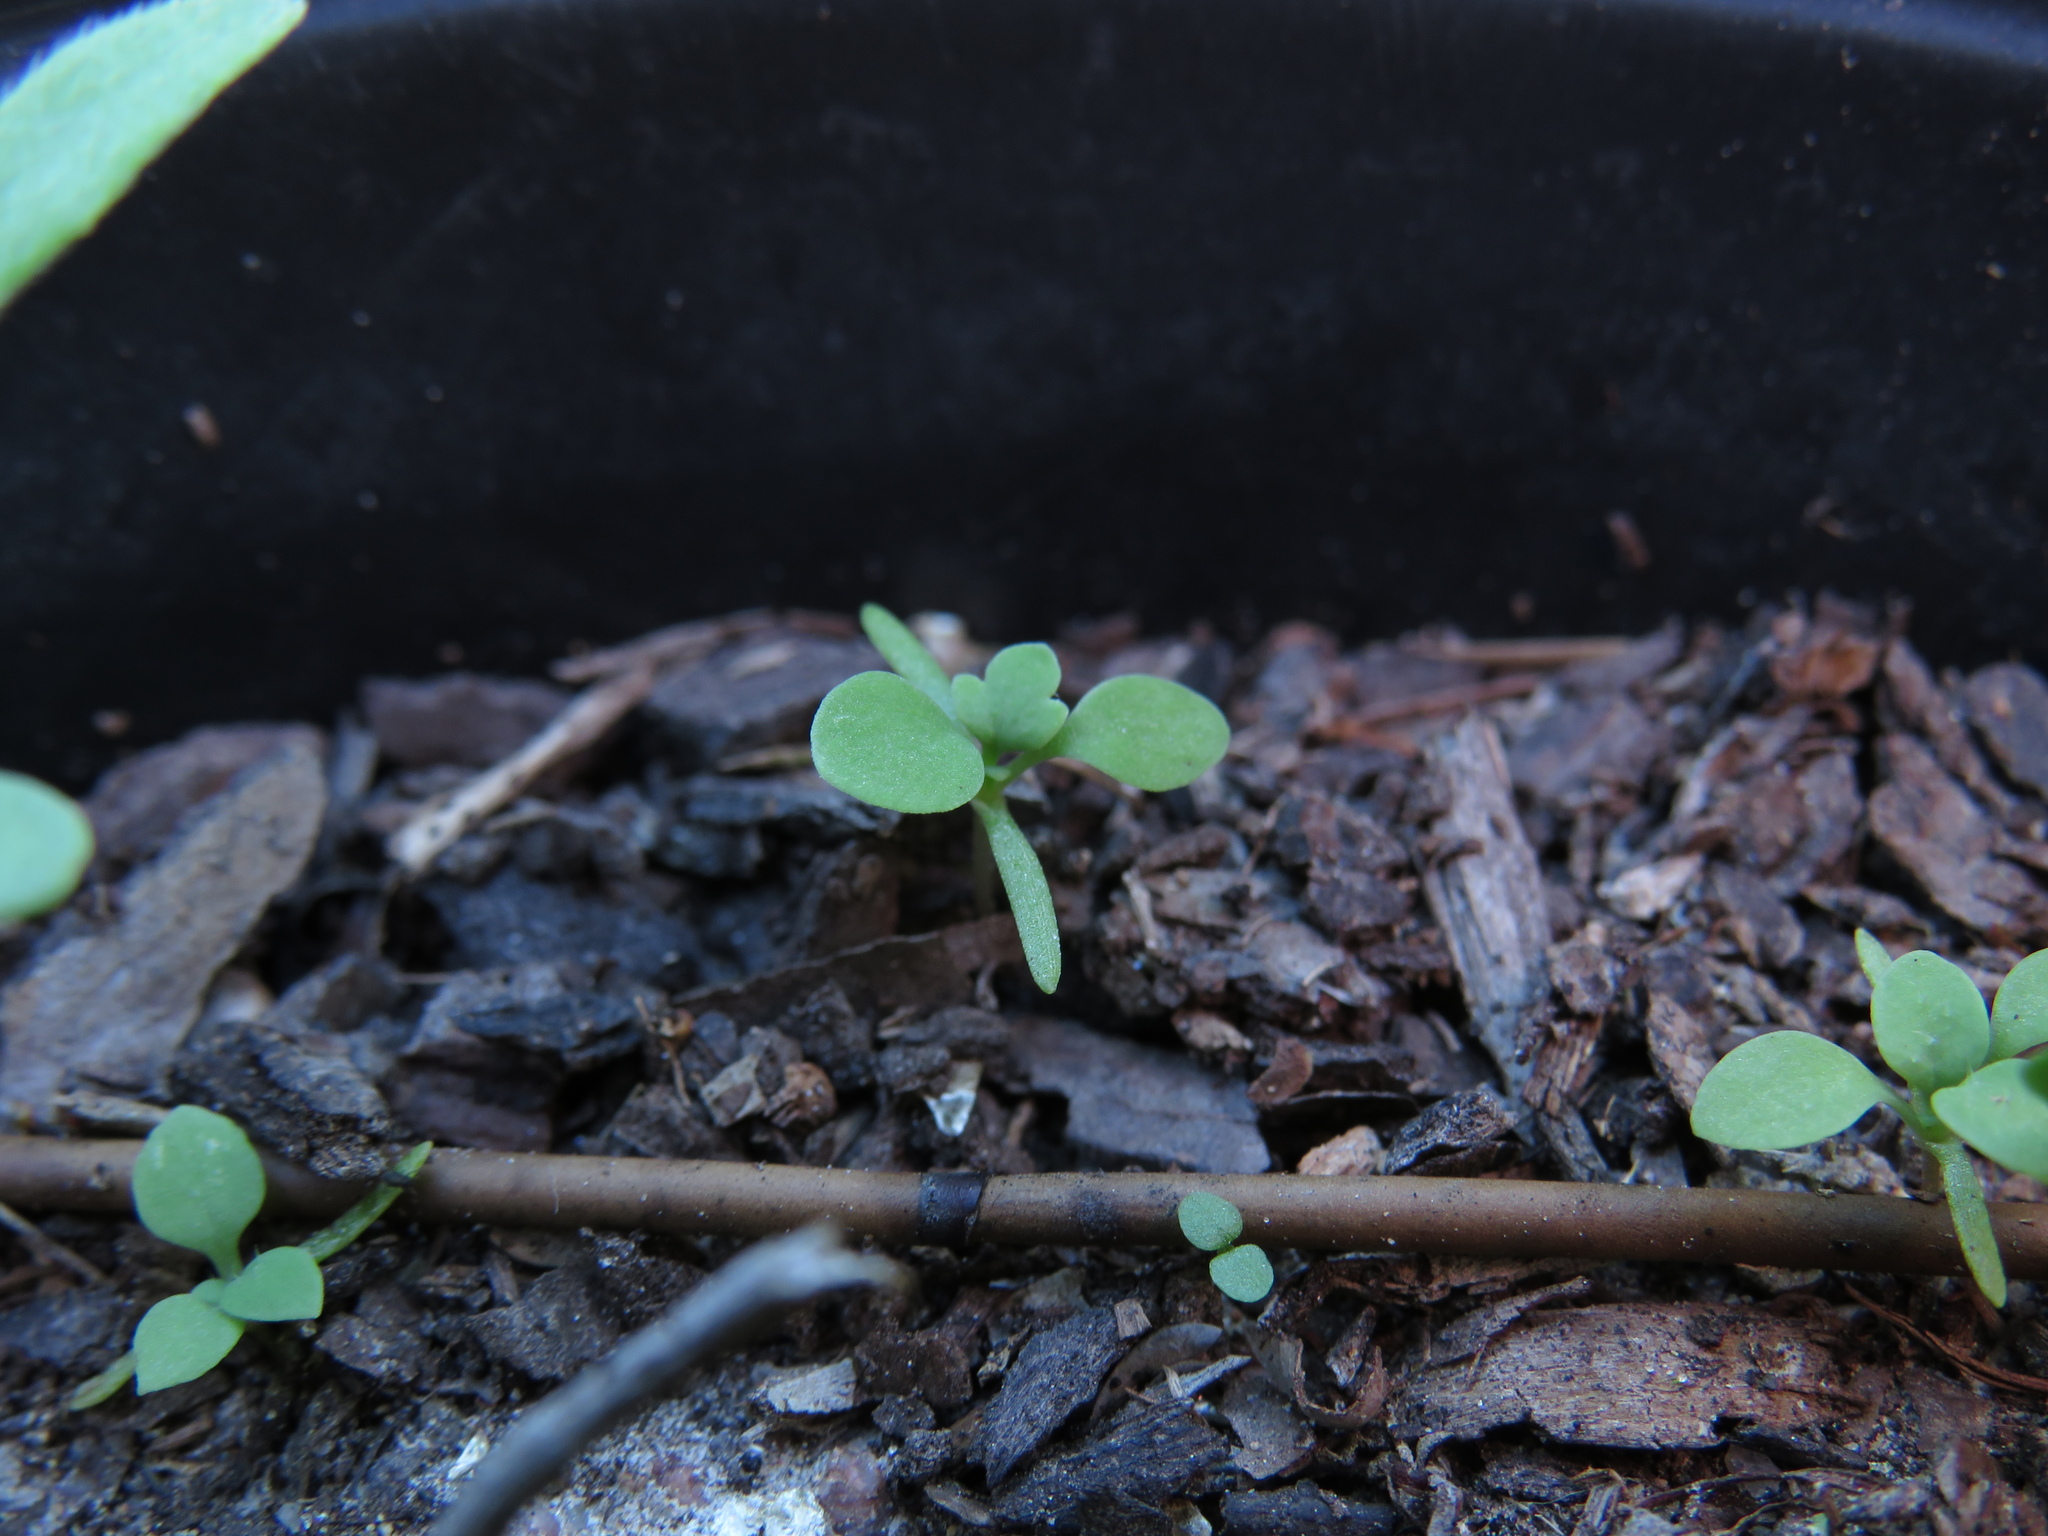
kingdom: Plantae
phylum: Tracheophyta
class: Magnoliopsida
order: Ranunculales
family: Papaveraceae
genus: Papaver
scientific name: Papaver rhoeas
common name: Corn poppy
